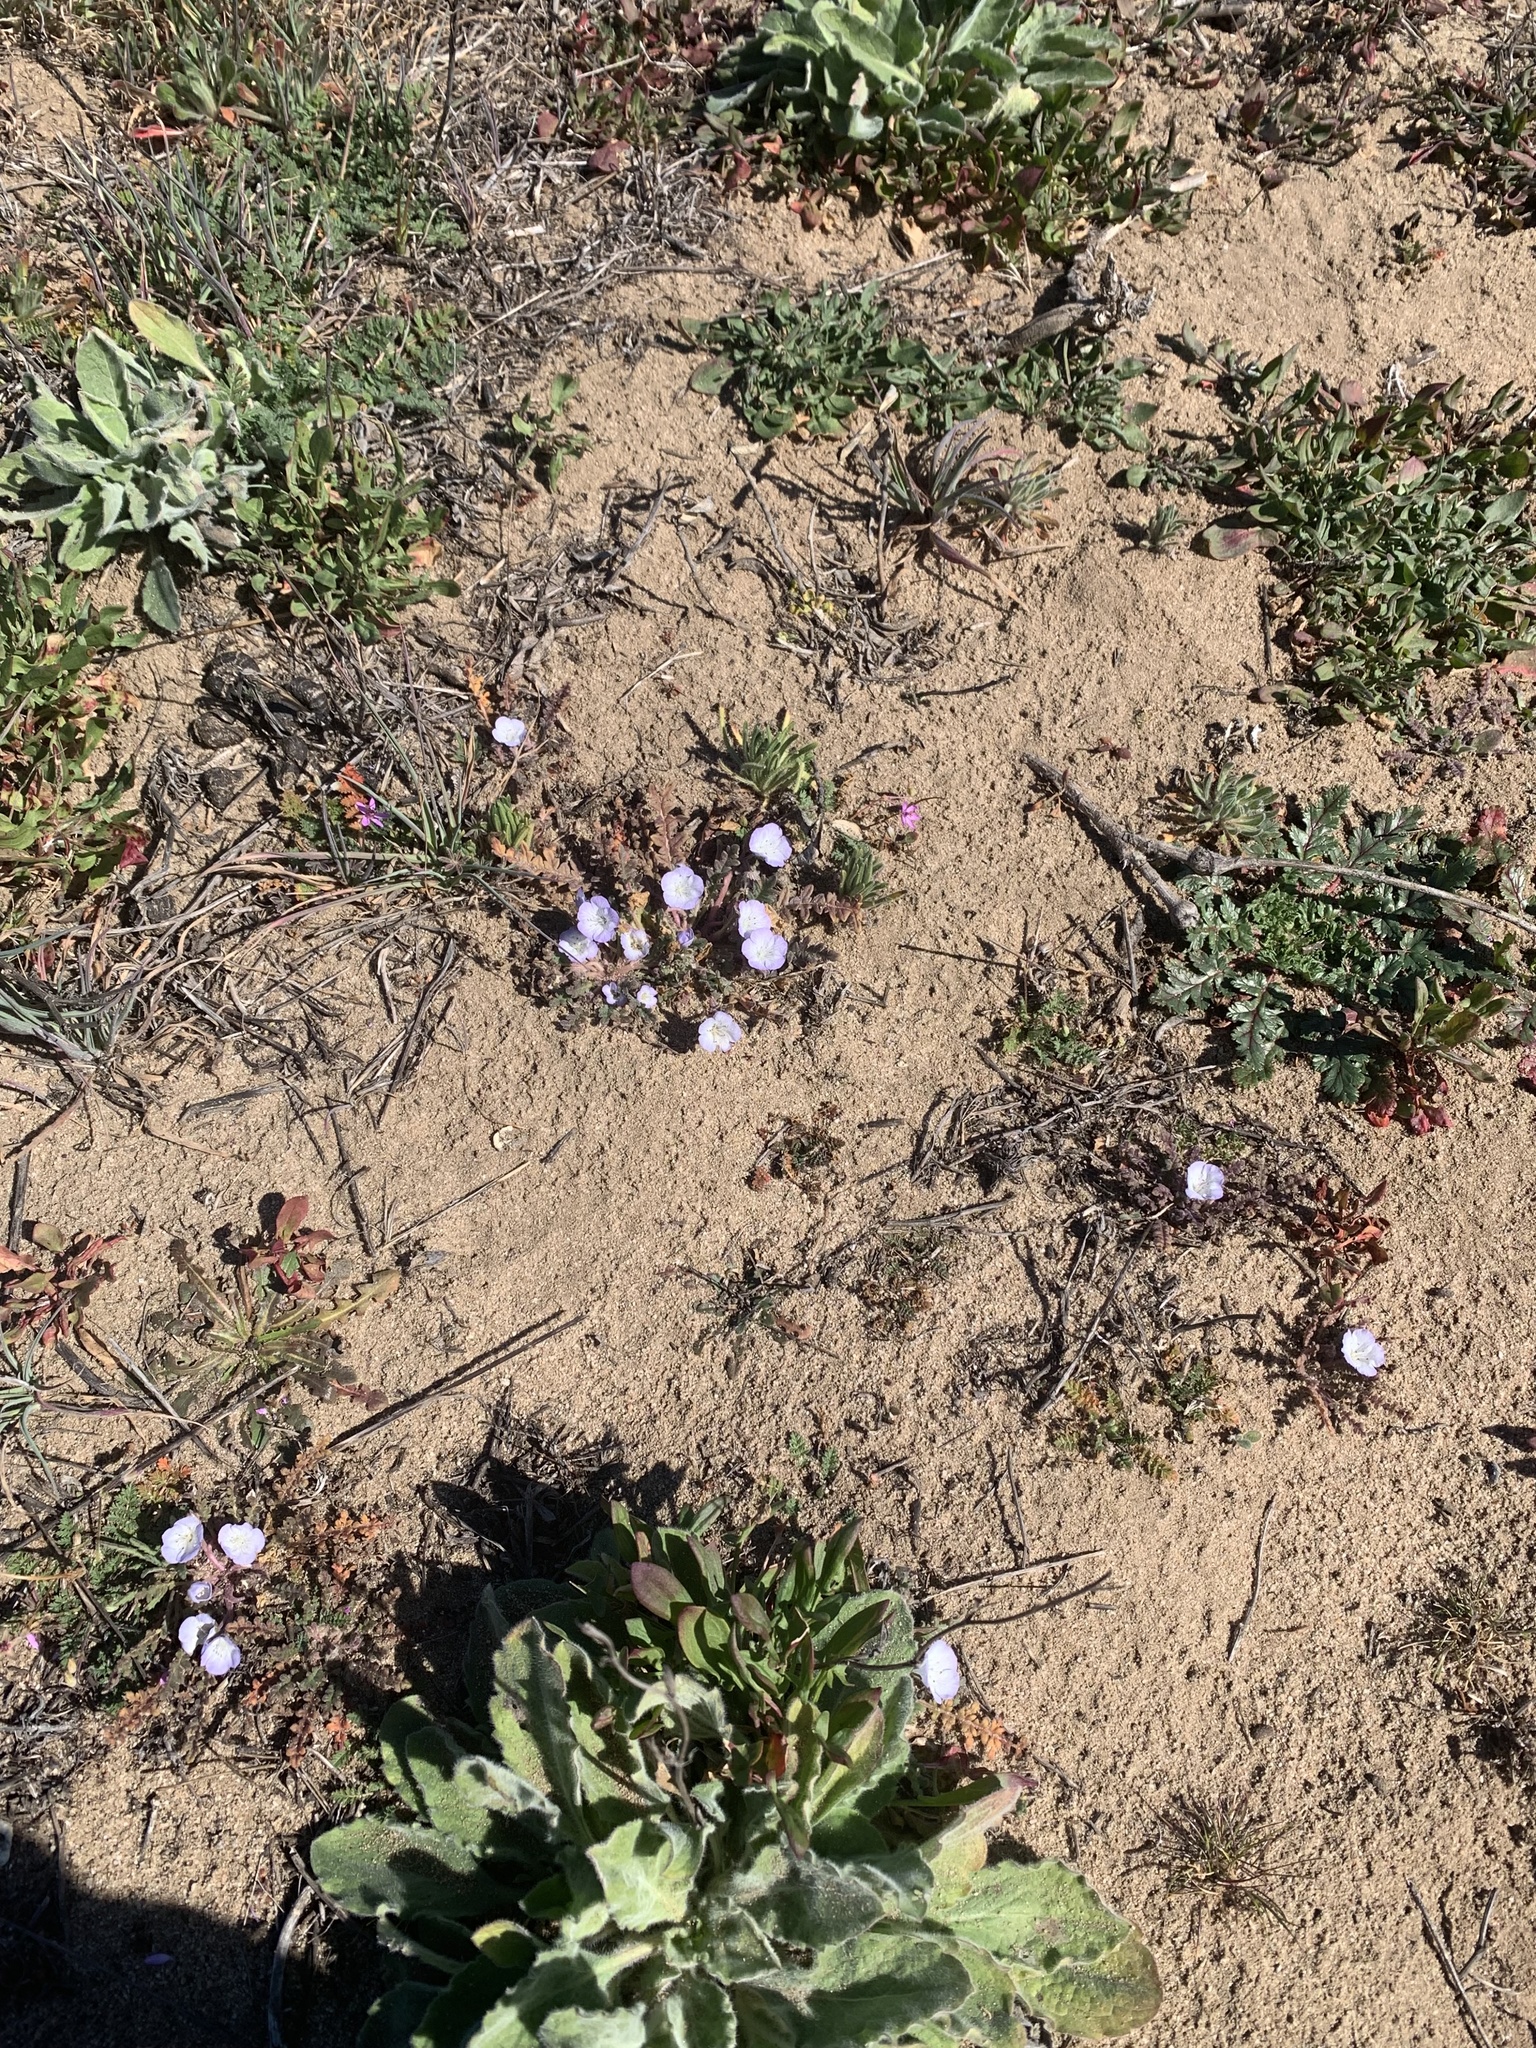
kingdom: Plantae
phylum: Tracheophyta
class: Magnoliopsida
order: Boraginales
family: Hydrophyllaceae
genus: Phacelia
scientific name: Phacelia douglasii
